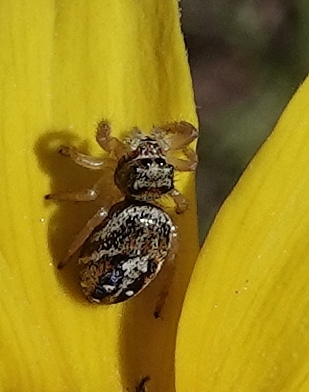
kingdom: Animalia
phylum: Arthropoda
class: Arachnida
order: Araneae
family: Salticidae
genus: Phidippus
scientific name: Phidippus apacheanus
